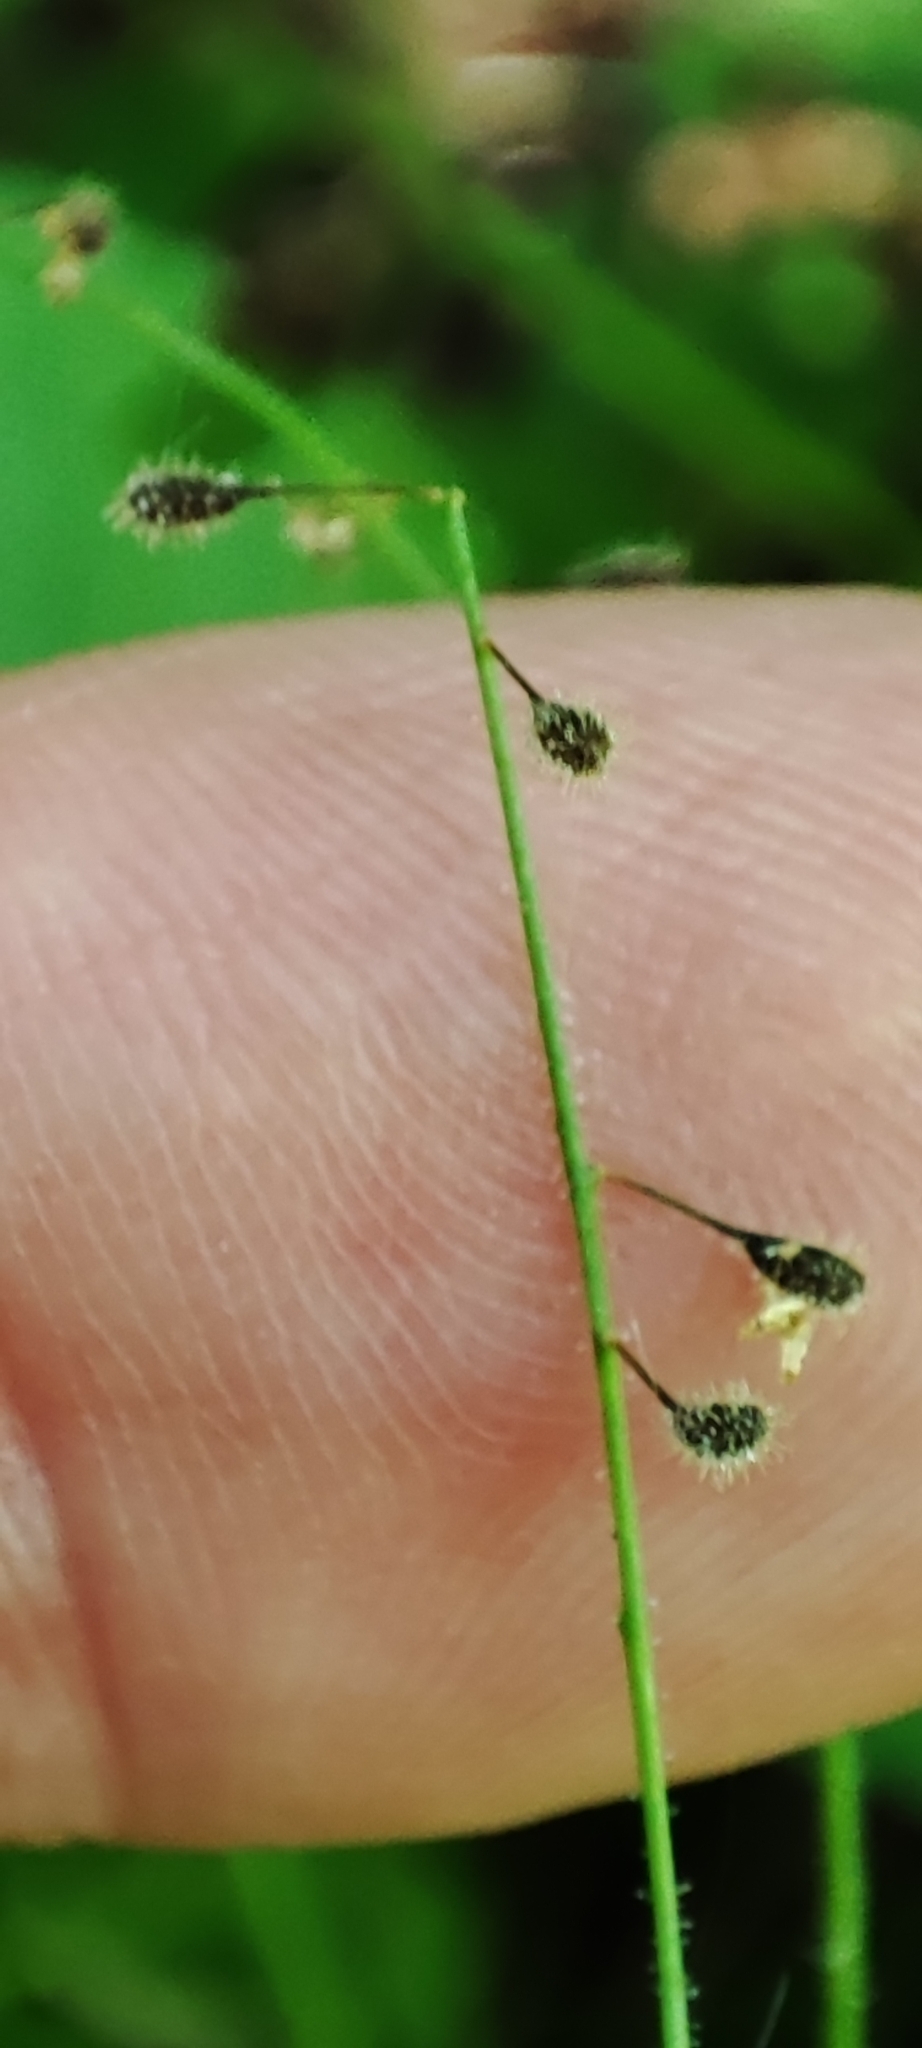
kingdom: Plantae
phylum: Tracheophyta
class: Magnoliopsida
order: Myrtales
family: Onagraceae
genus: Circaea
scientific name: Circaea alpina
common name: Alpine enchanter's-nightshade
